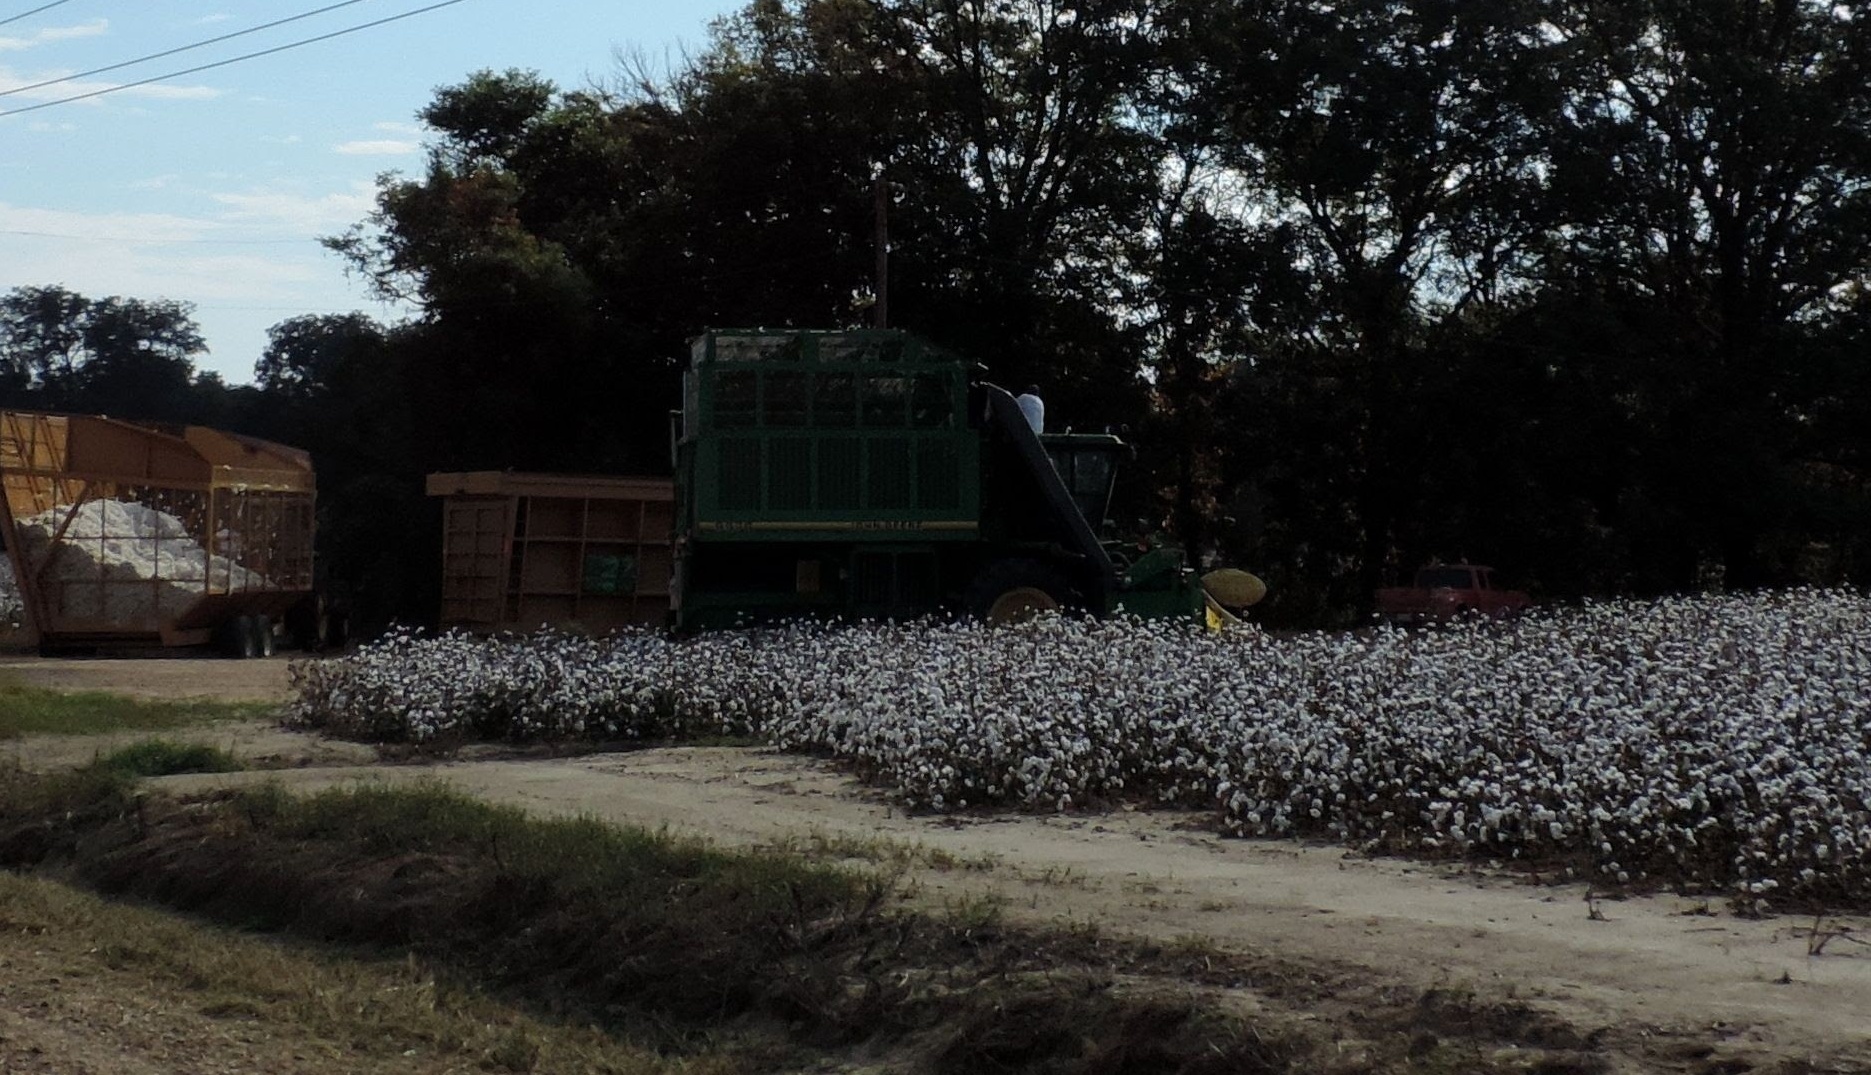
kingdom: Plantae
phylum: Tracheophyta
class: Magnoliopsida
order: Malvales
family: Malvaceae
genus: Gossypium
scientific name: Gossypium hirsutum
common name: Cotton
